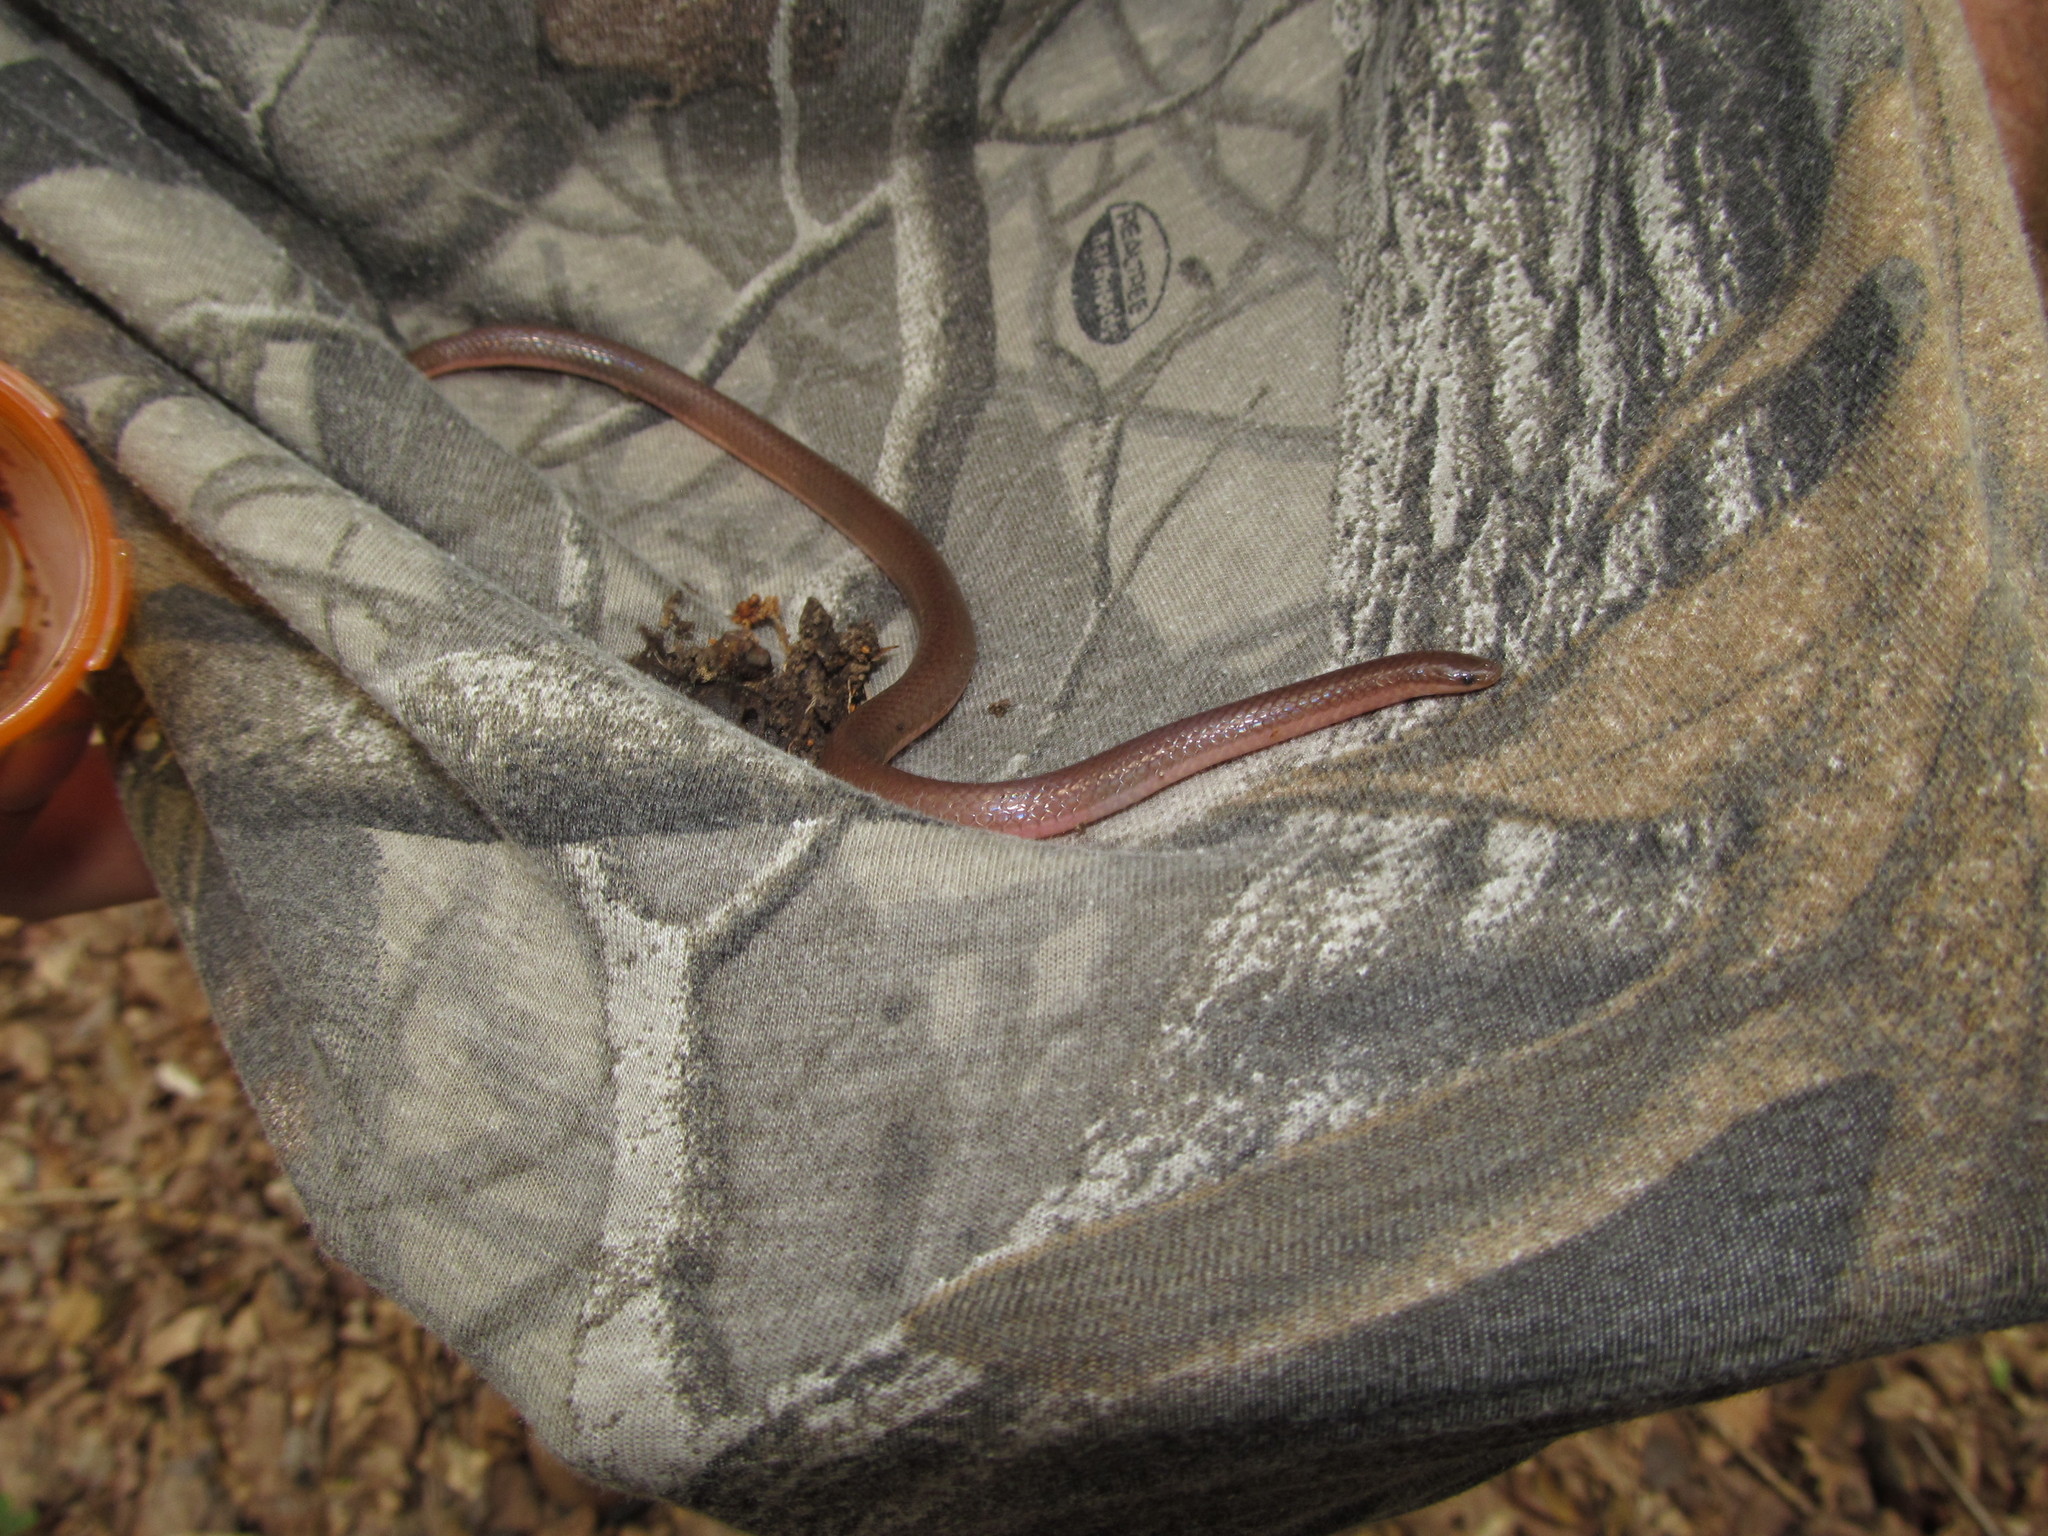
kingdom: Animalia
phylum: Chordata
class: Squamata
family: Colubridae
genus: Carphophis
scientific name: Carphophis amoenus
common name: Eastern worm snake
